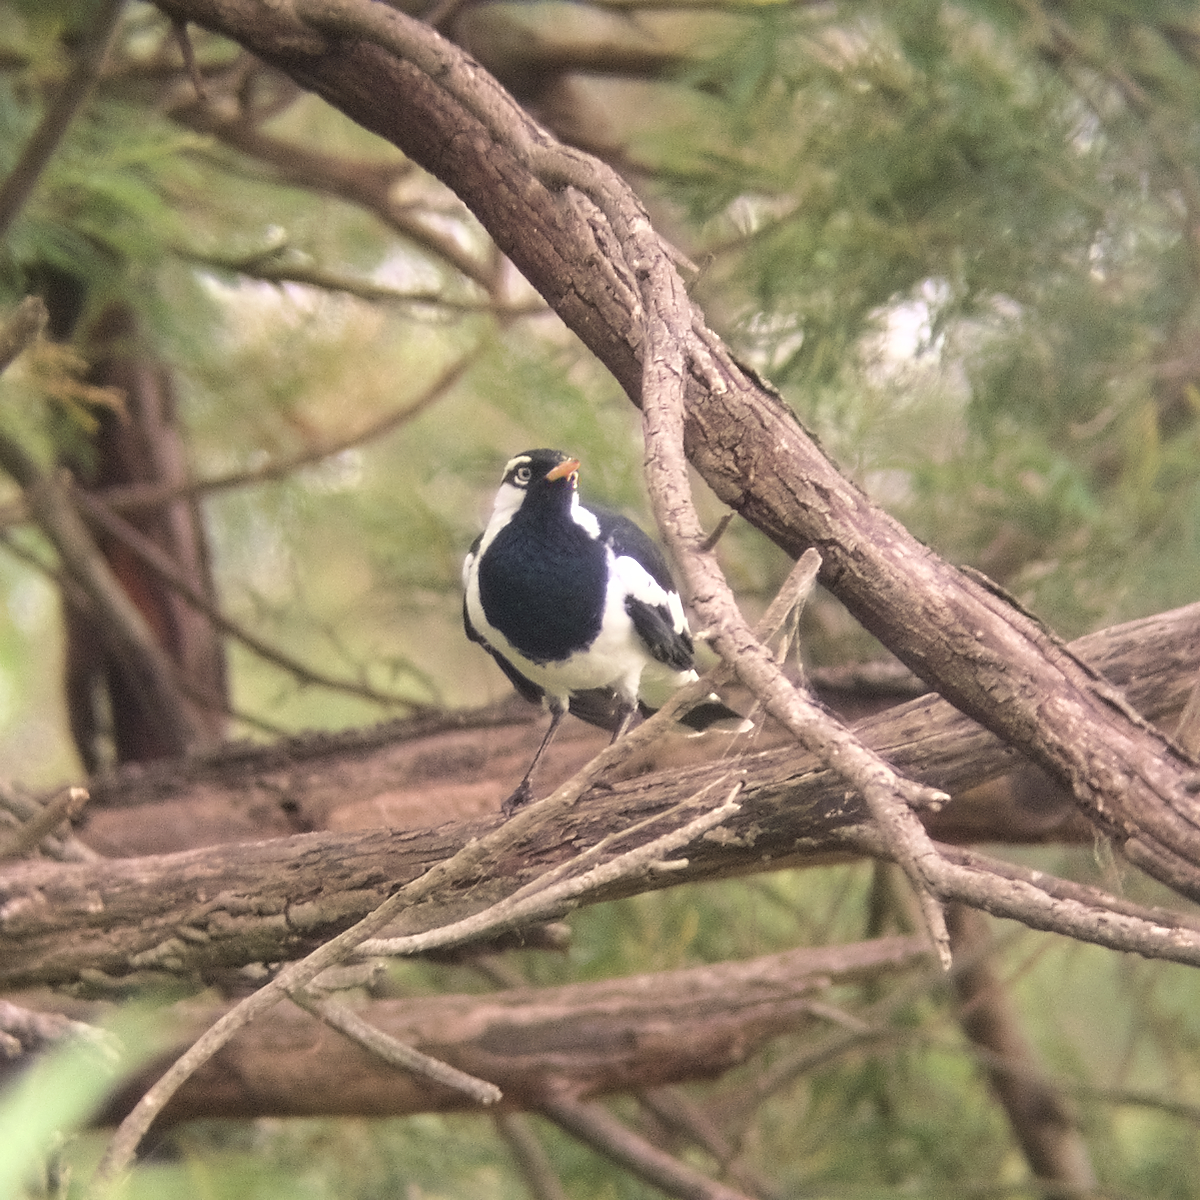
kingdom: Animalia
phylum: Chordata
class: Aves
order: Passeriformes
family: Monarchidae
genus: Grallina
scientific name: Grallina cyanoleuca
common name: Magpie-lark
